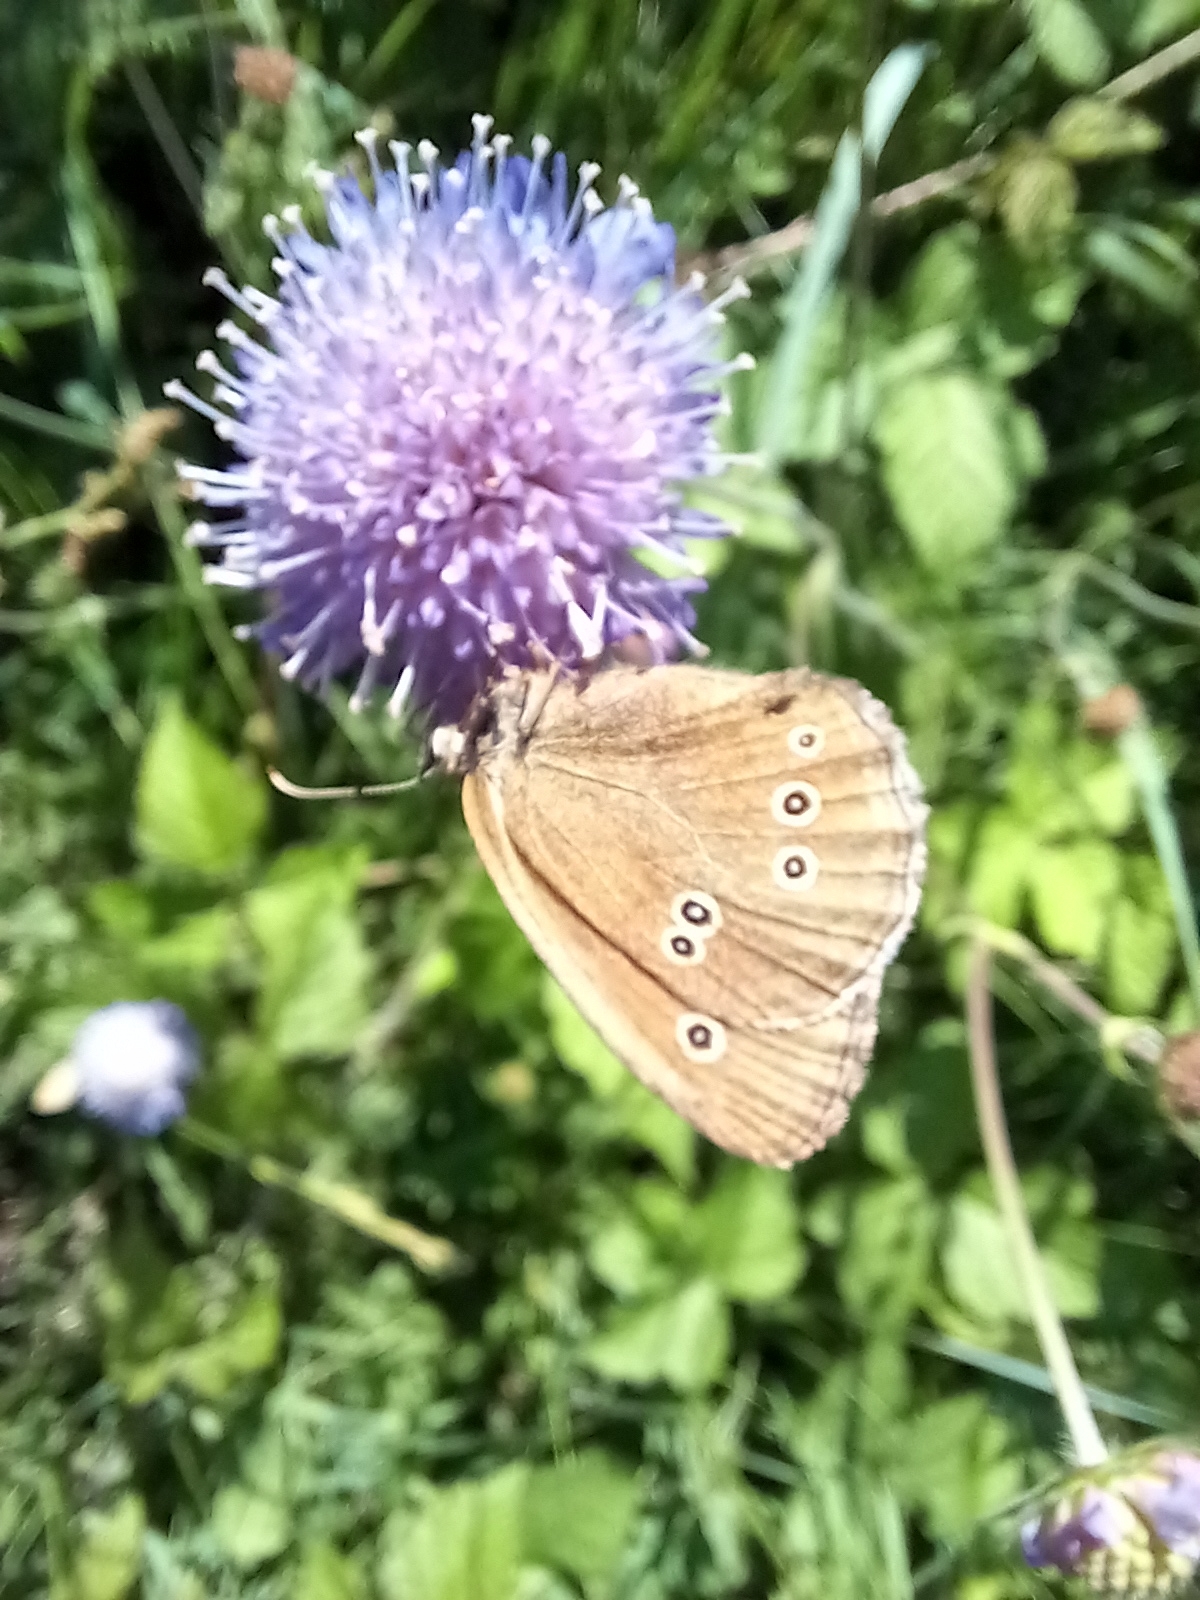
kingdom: Animalia
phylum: Arthropoda
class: Insecta
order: Lepidoptera
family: Nymphalidae
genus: Aphantopus
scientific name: Aphantopus hyperantus
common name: Ringlet
